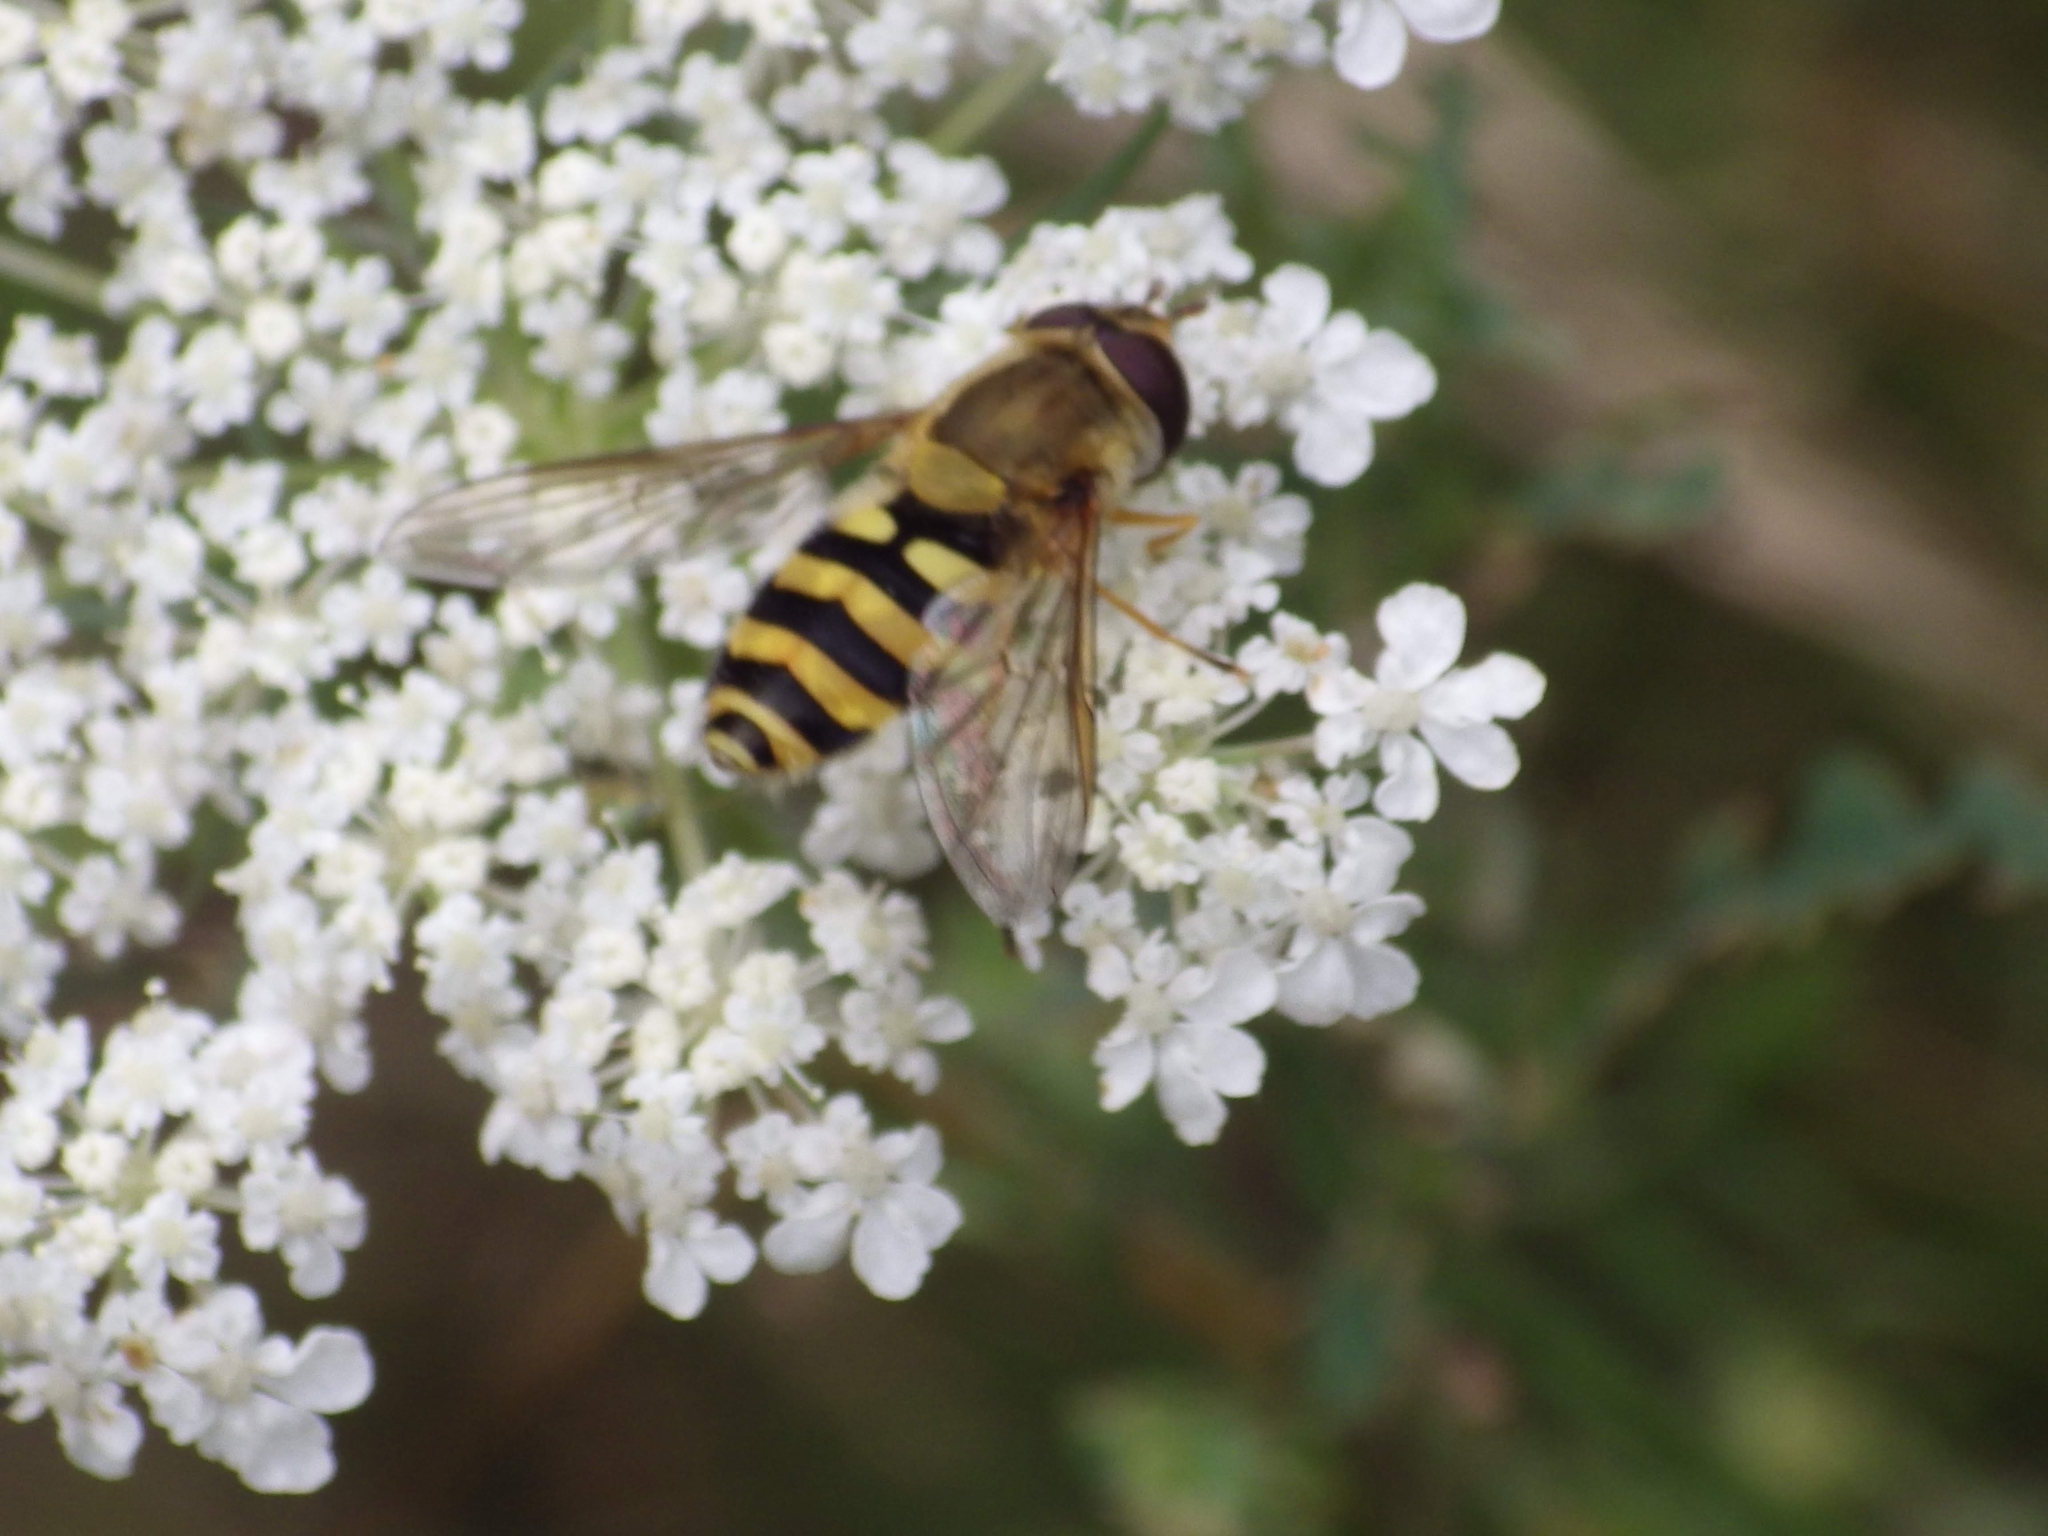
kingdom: Animalia
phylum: Arthropoda
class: Insecta
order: Diptera
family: Syrphidae
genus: Syrphus
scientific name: Syrphus
